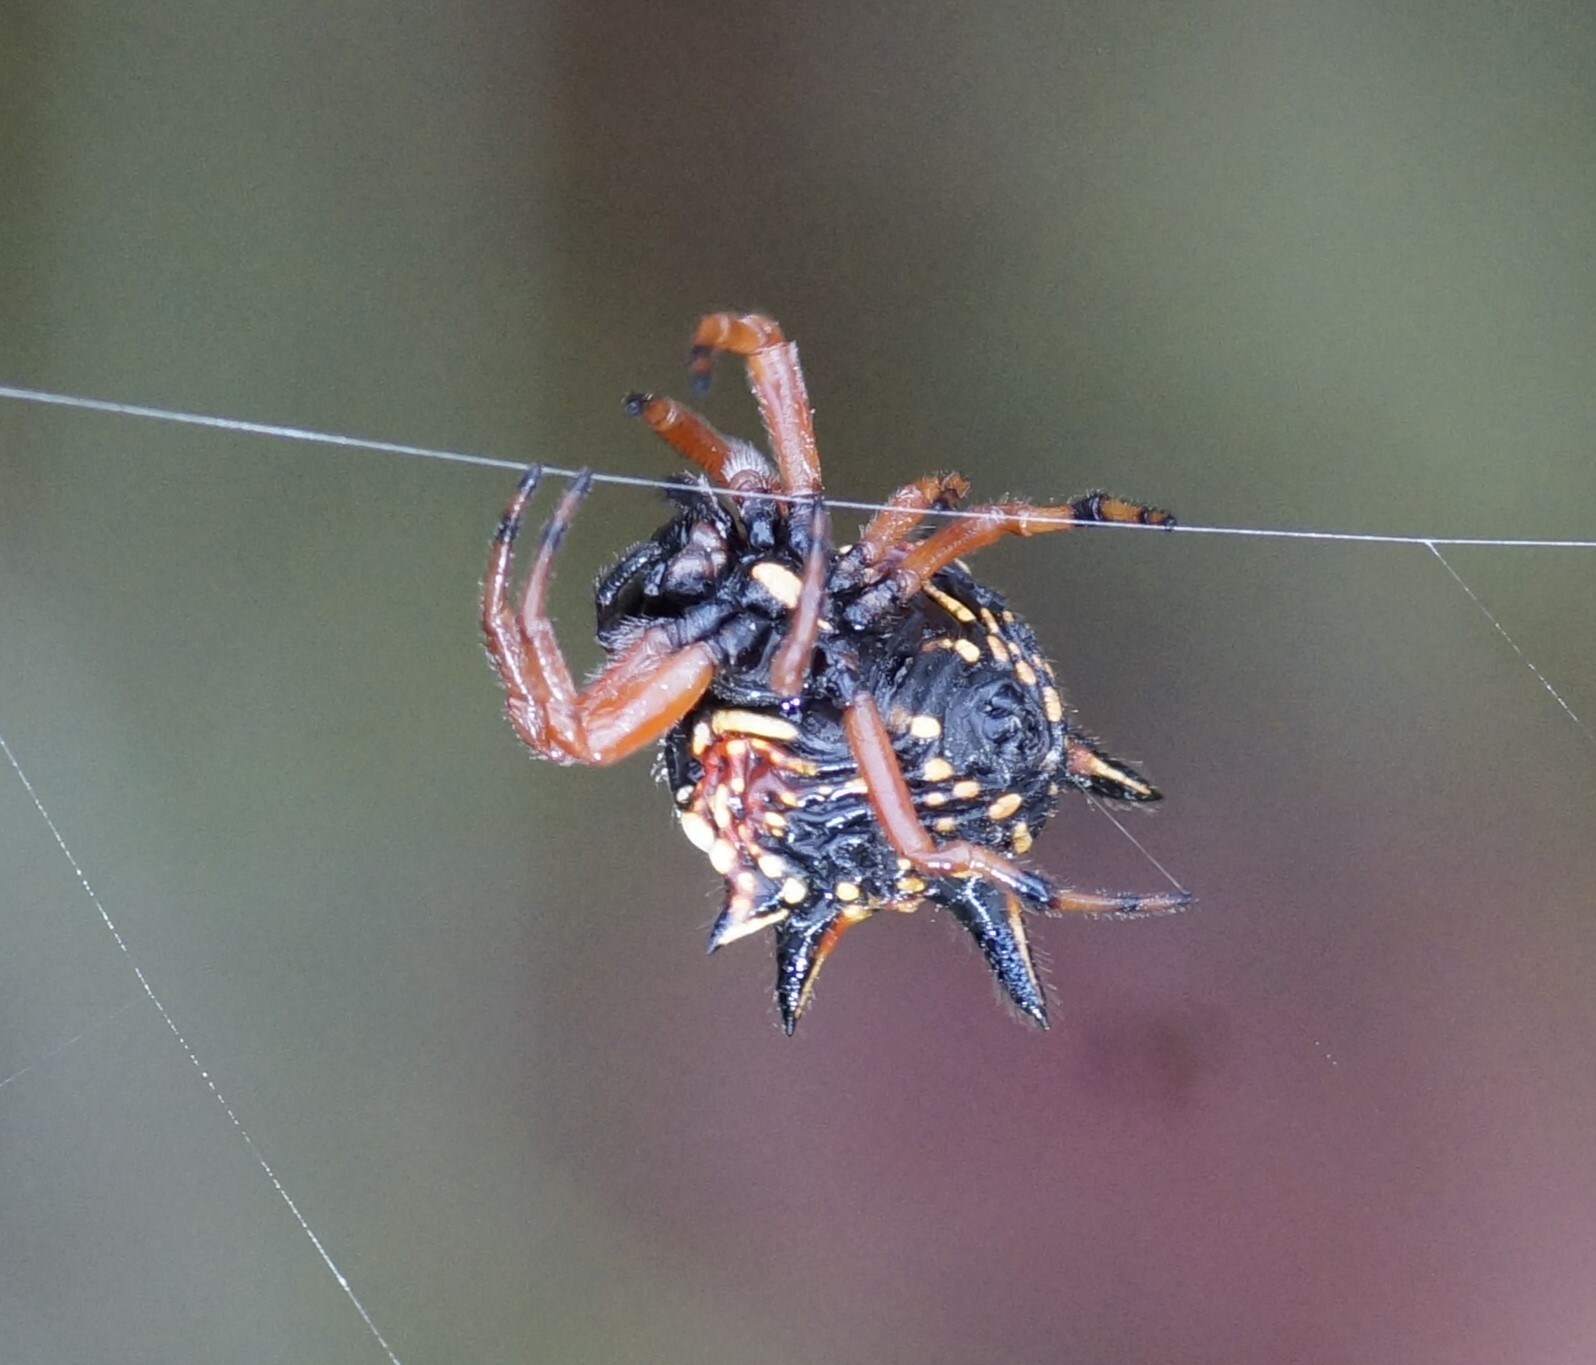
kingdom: Animalia
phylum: Arthropoda
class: Arachnida
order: Araneae
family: Araneidae
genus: Austracantha
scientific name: Austracantha minax
